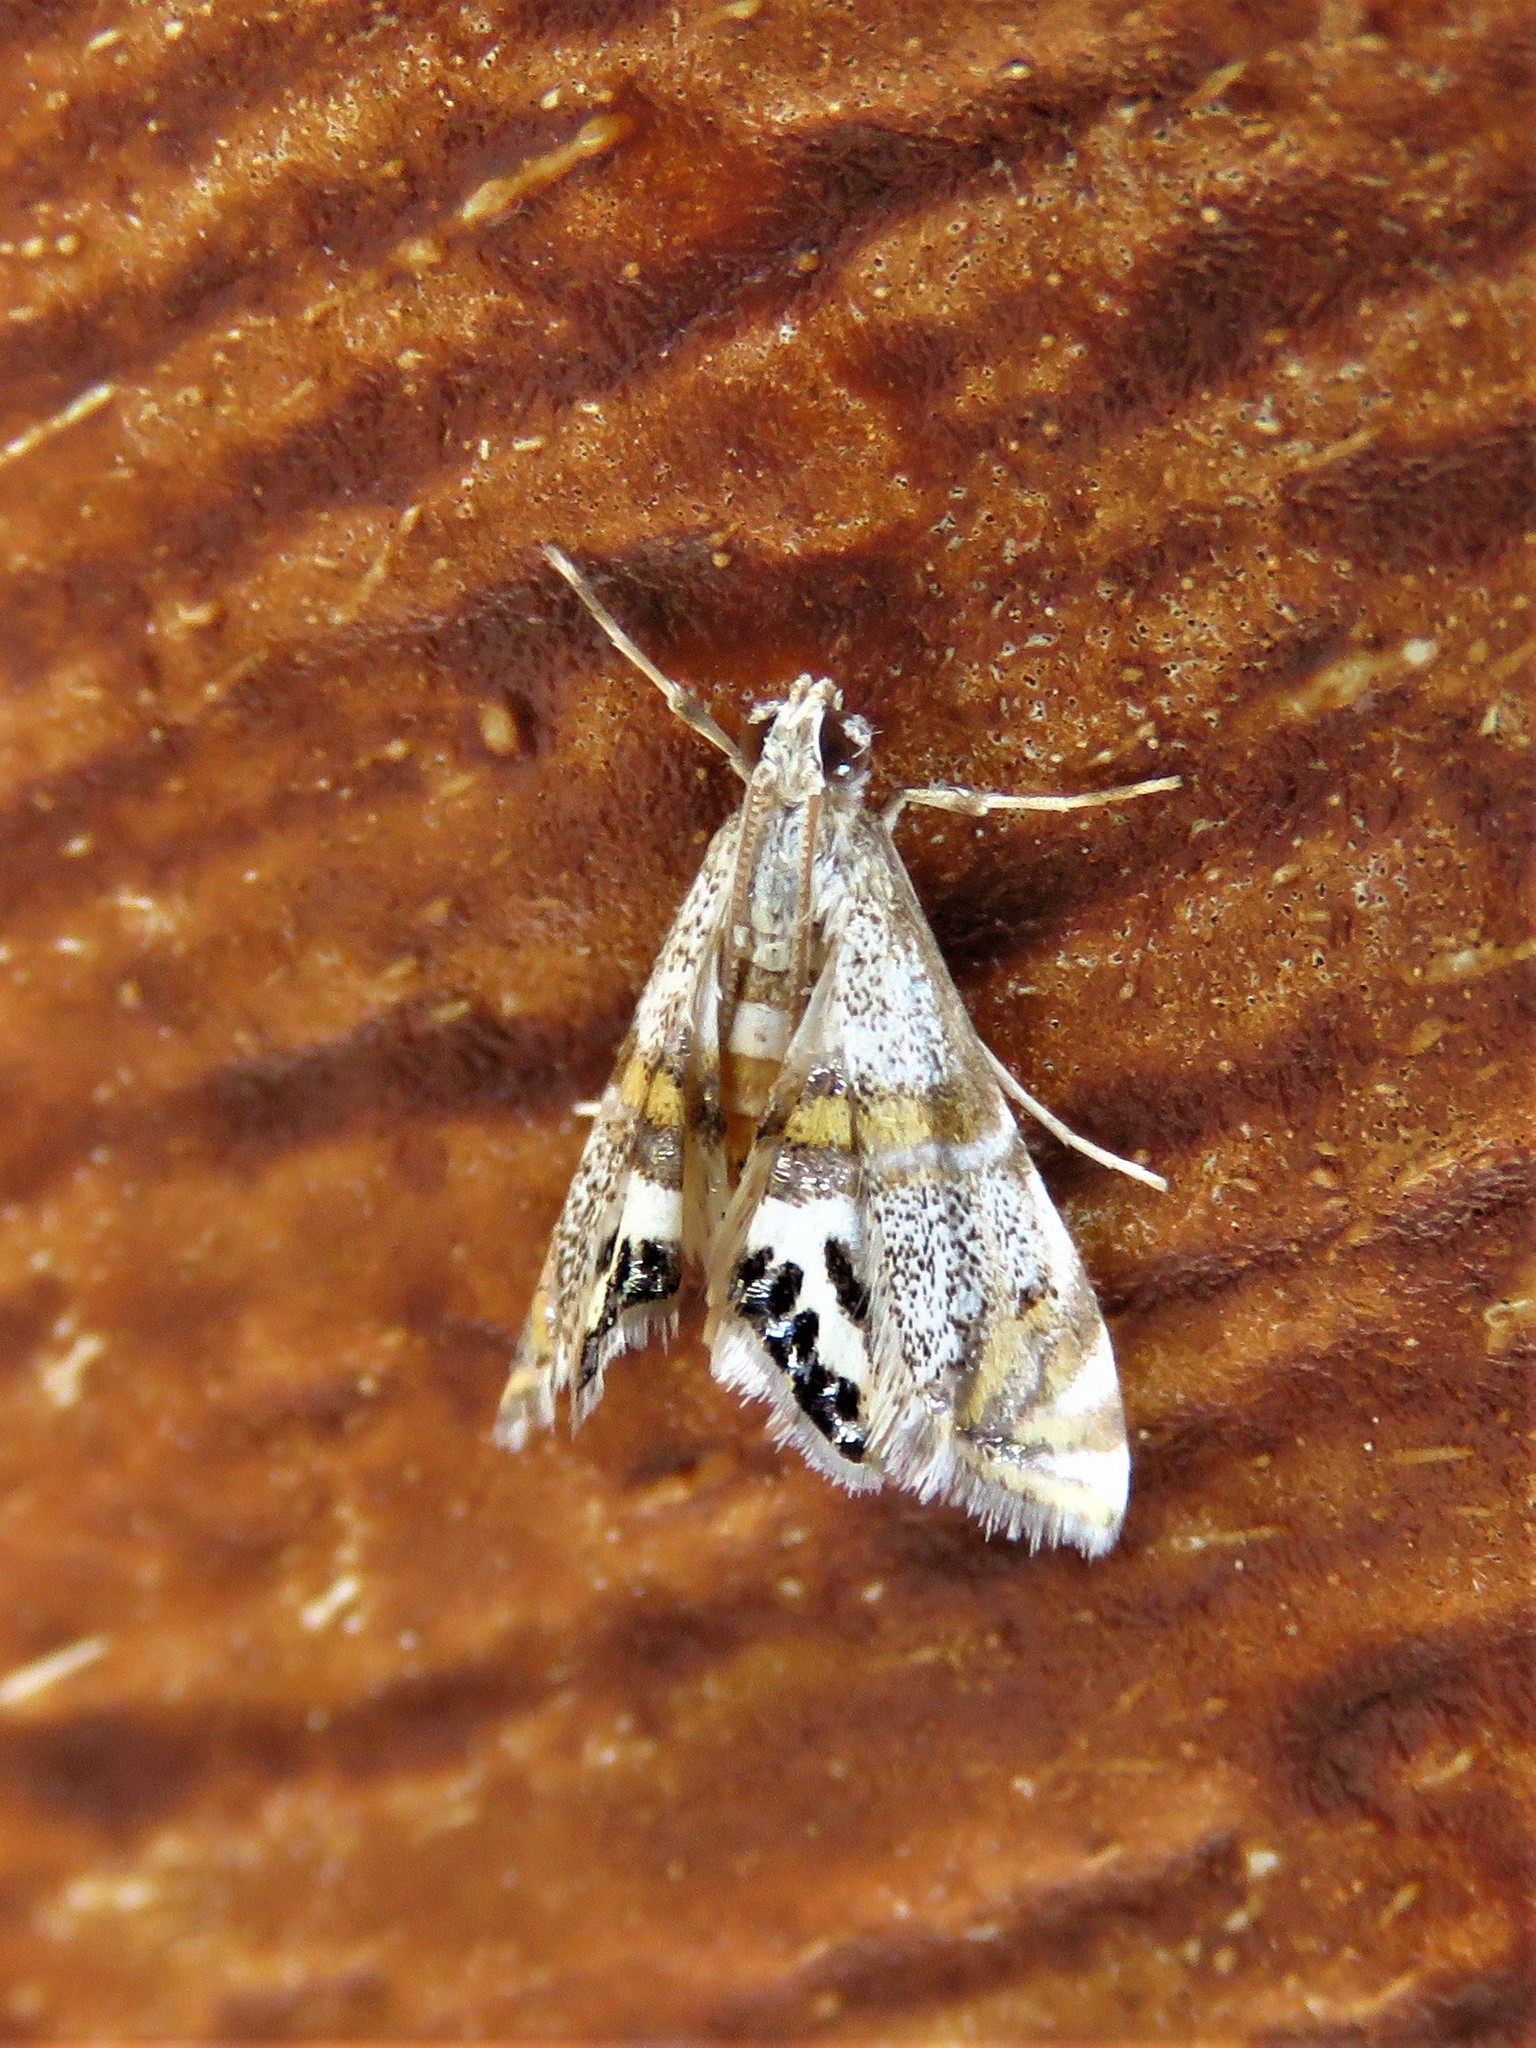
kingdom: Animalia
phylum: Arthropoda
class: Insecta
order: Lepidoptera
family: Crambidae
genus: Petrophila
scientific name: Petrophila bifascialis
